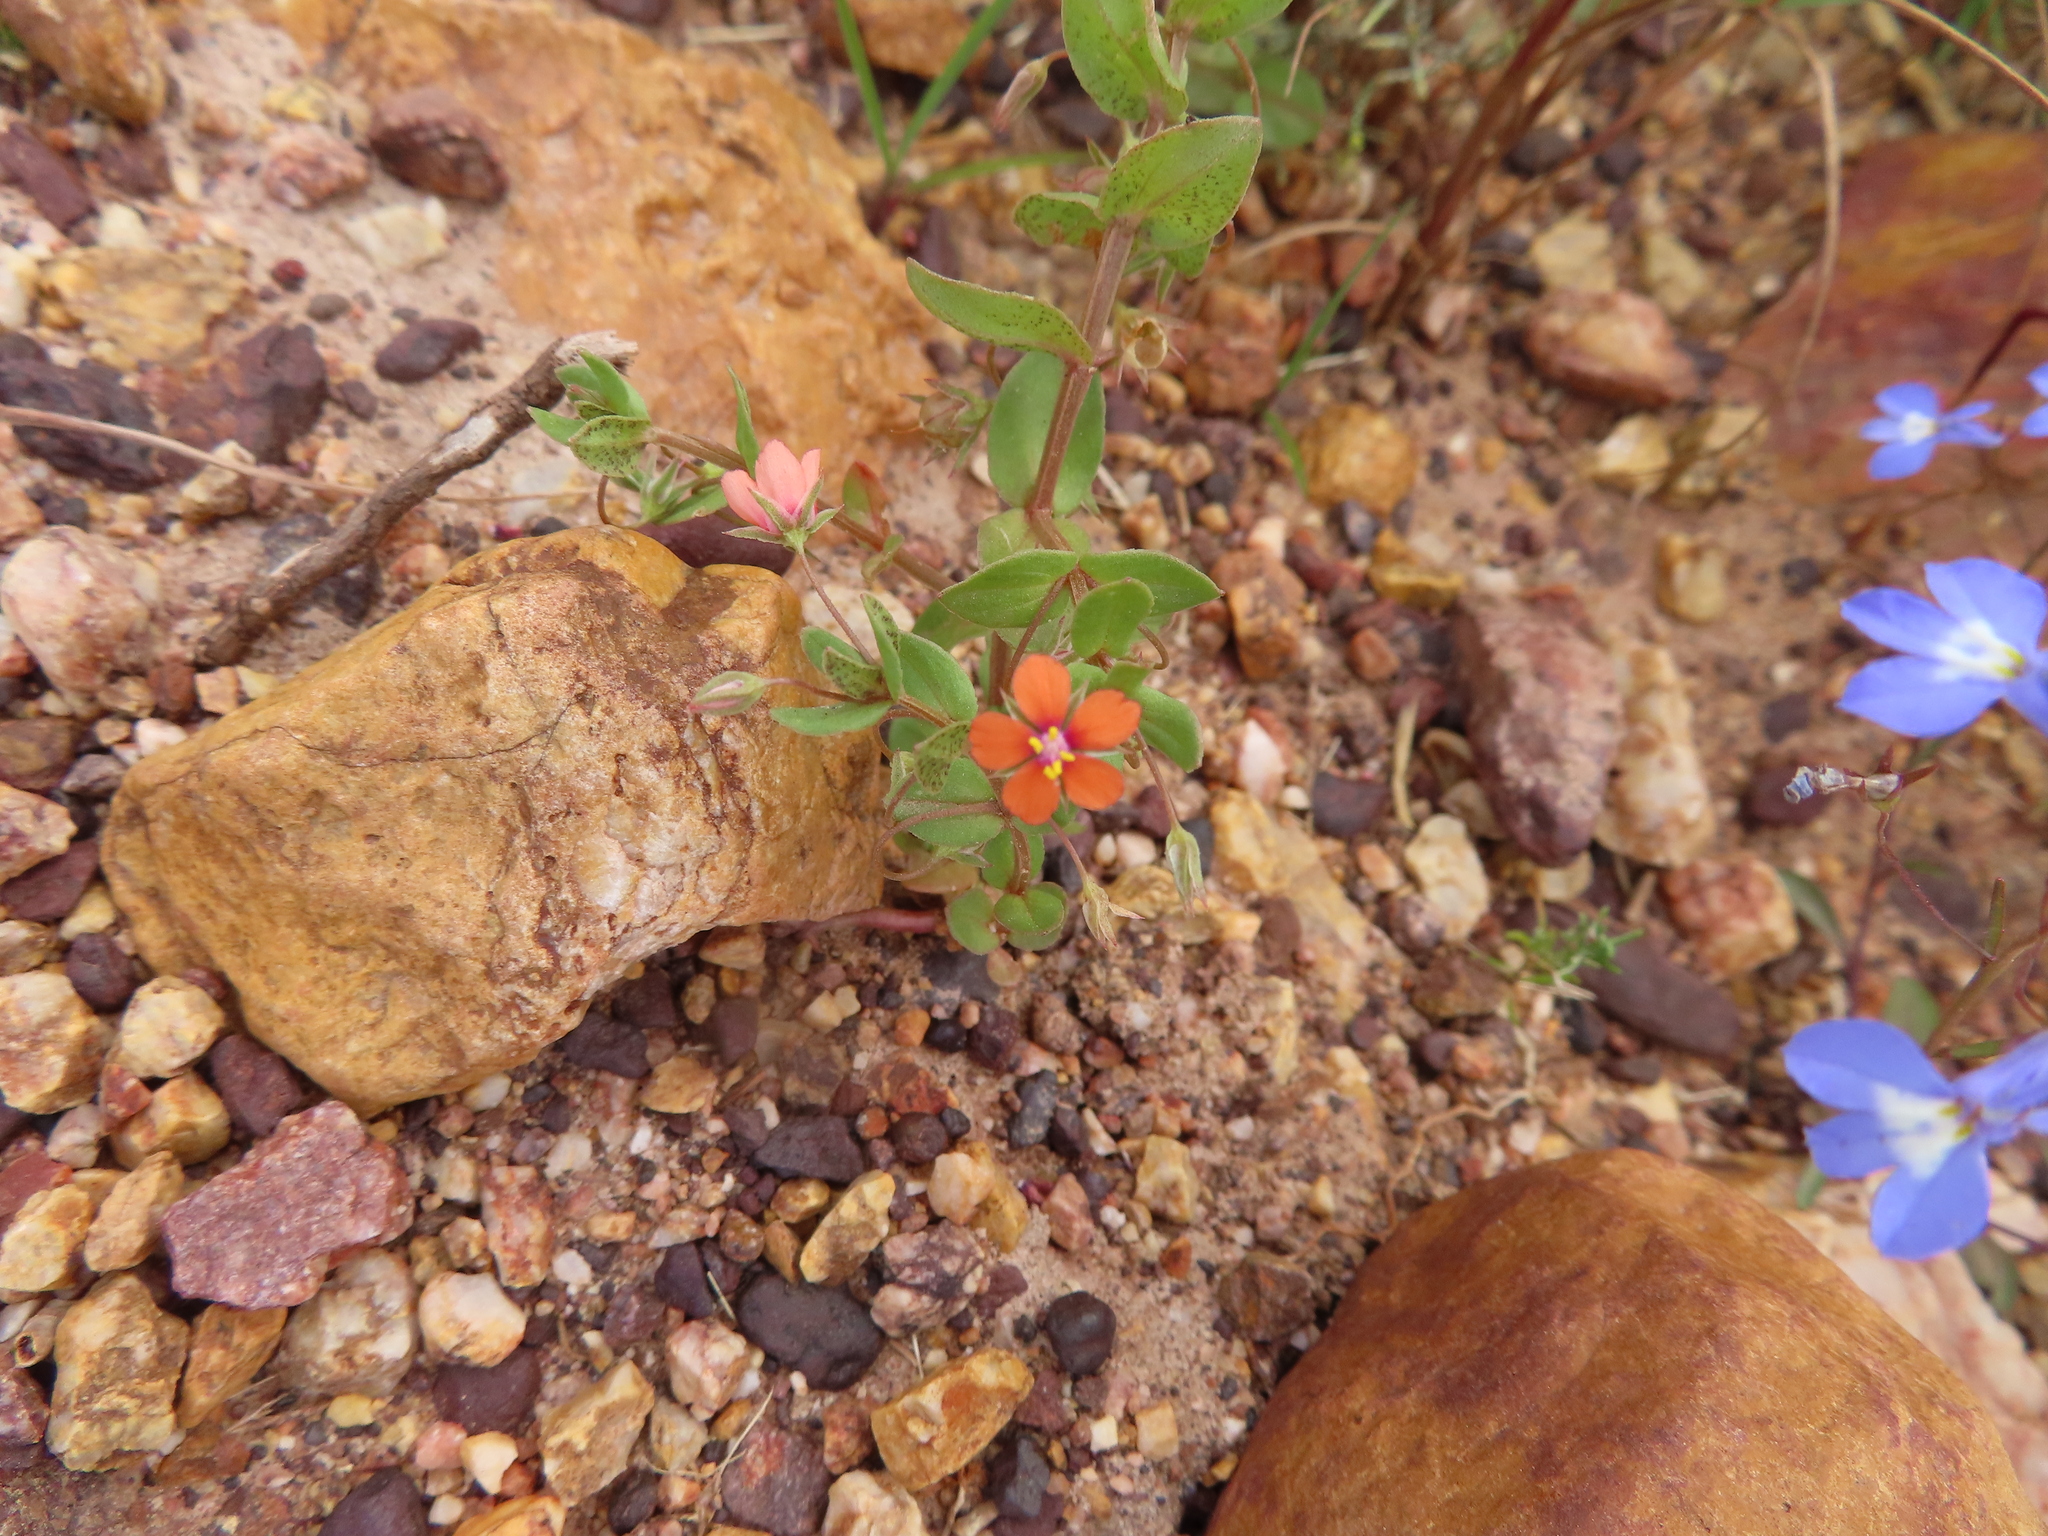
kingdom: Plantae
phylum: Tracheophyta
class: Magnoliopsida
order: Ericales
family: Primulaceae
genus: Lysimachia
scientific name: Lysimachia arvensis
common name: Scarlet pimpernel
